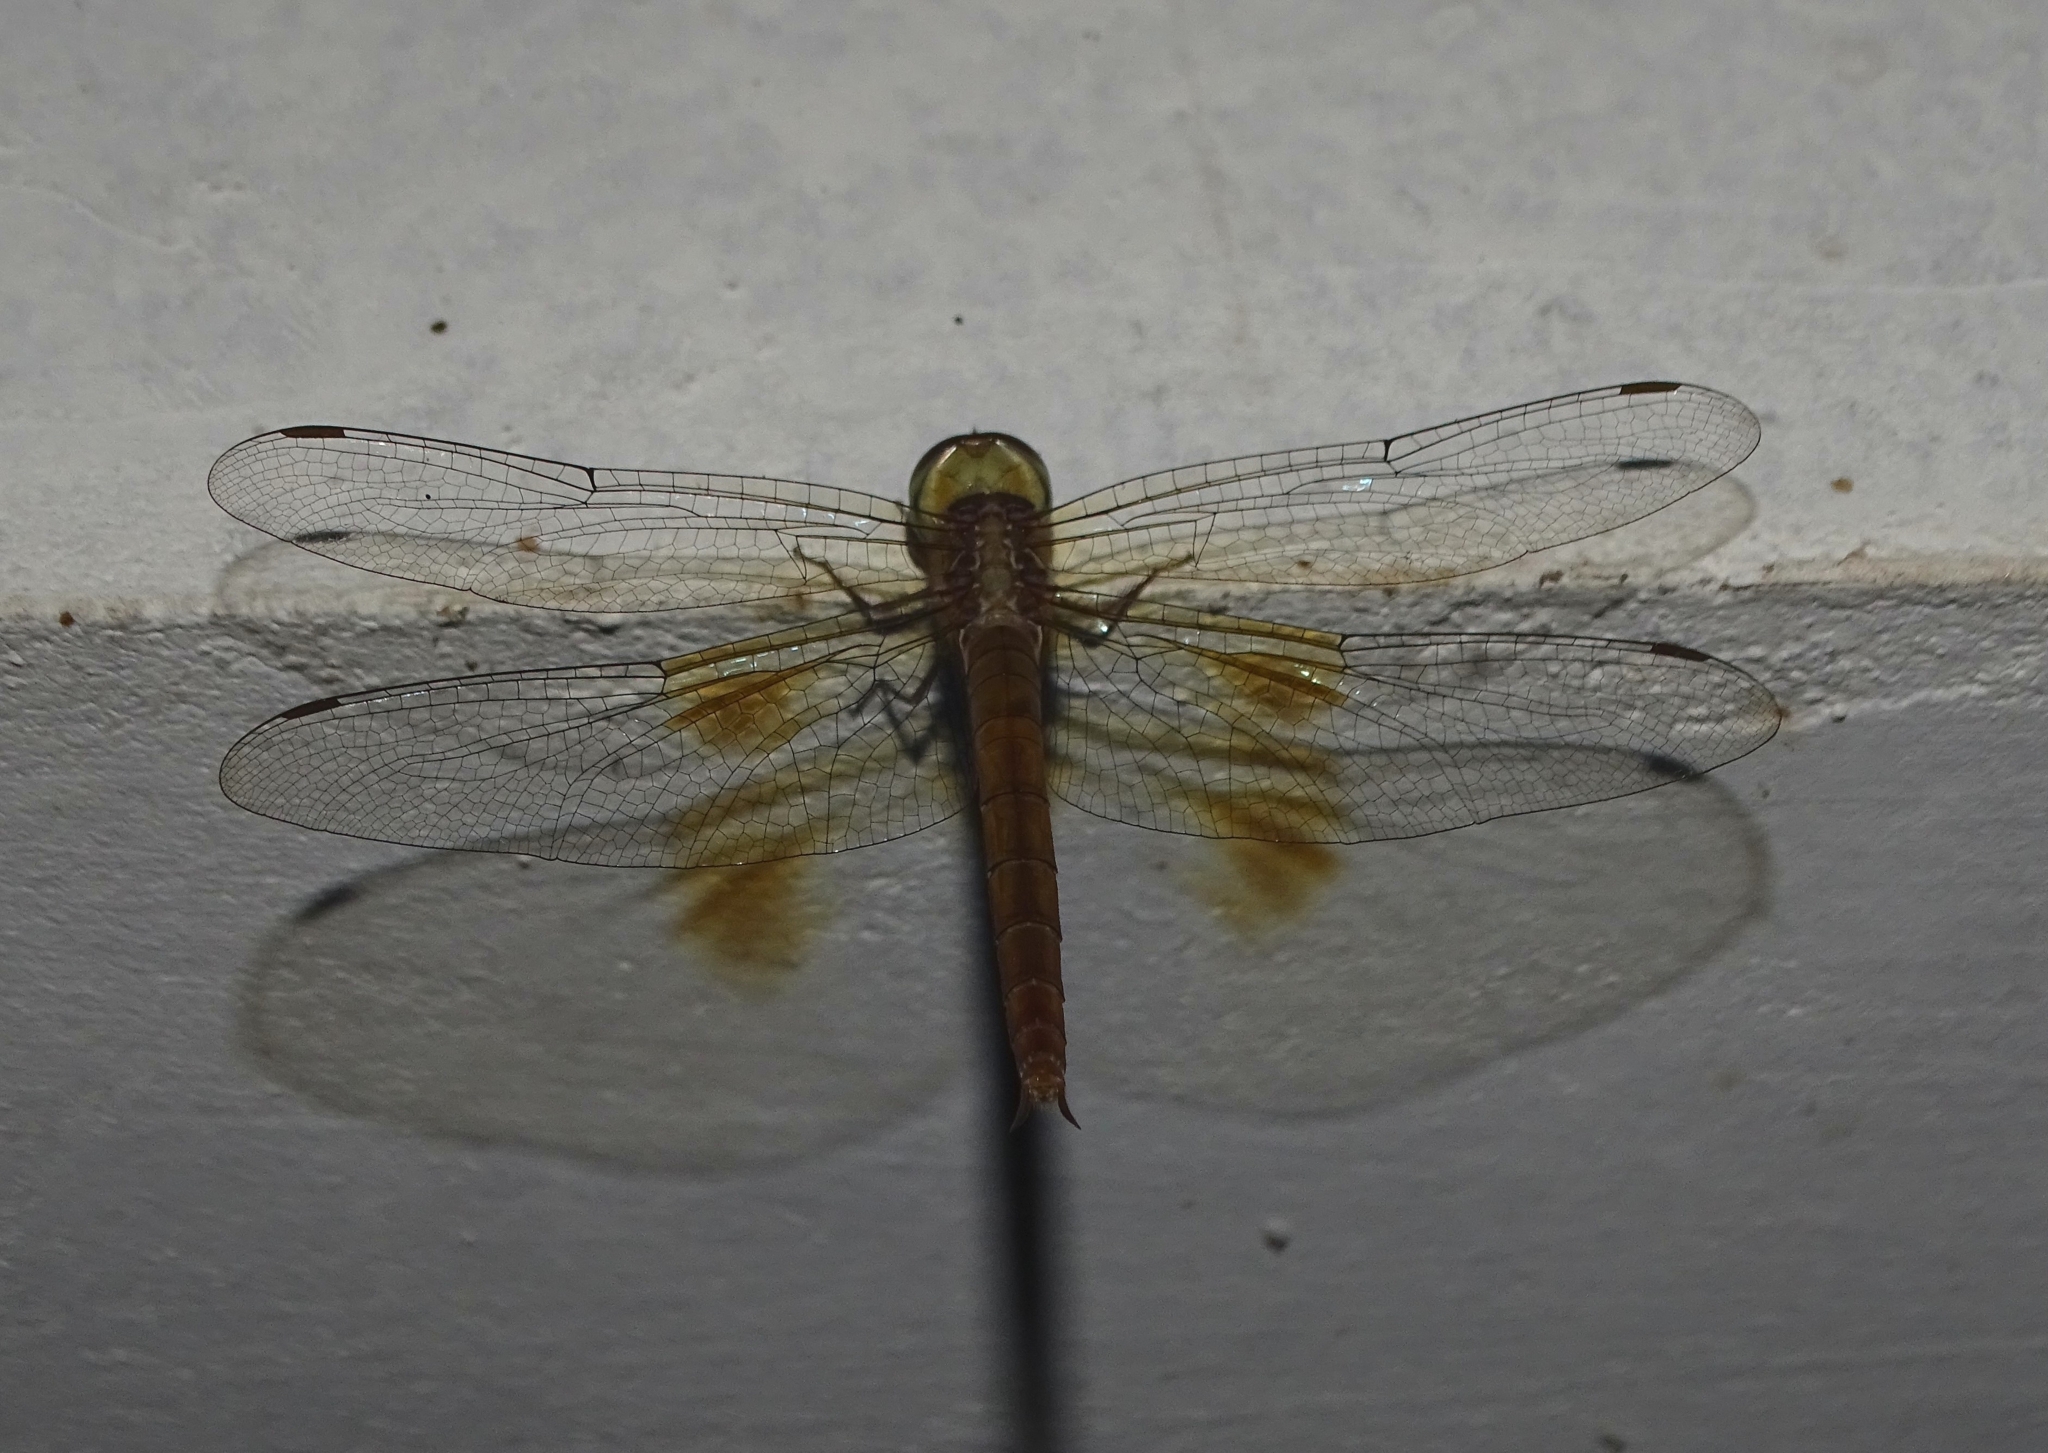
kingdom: Animalia
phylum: Arthropoda
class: Insecta
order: Odonata
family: Libellulidae
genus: Tholymis
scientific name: Tholymis tillarga
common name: Coral-tailed cloud wing
